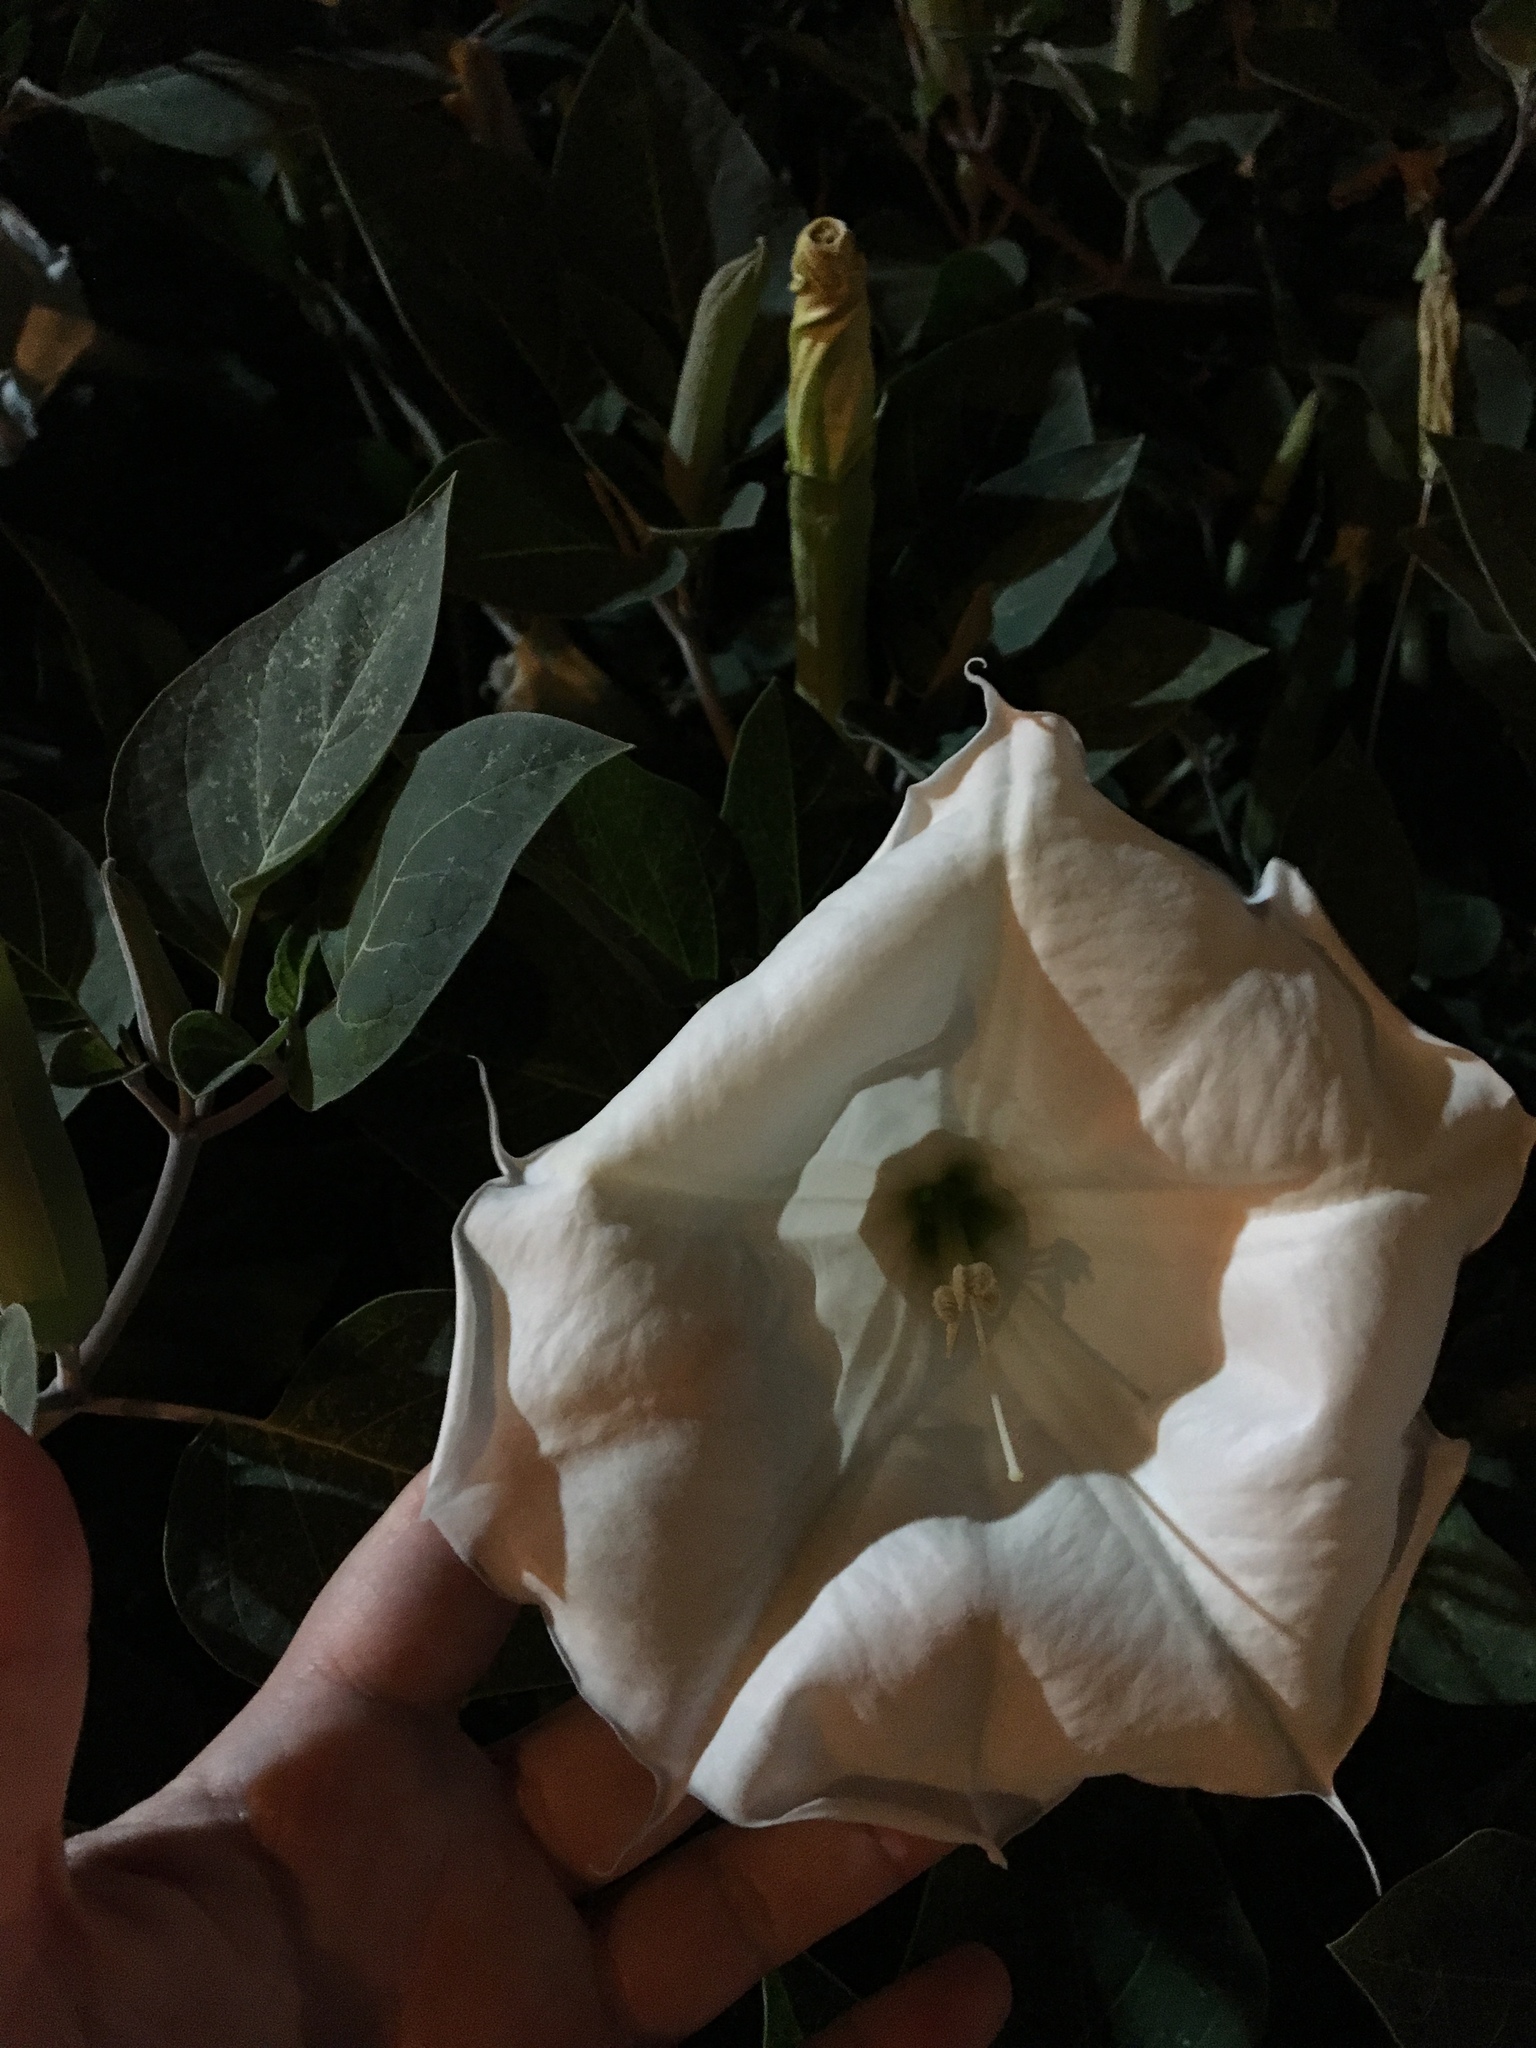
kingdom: Plantae
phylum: Tracheophyta
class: Magnoliopsida
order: Solanales
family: Solanaceae
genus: Datura
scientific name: Datura wrightii
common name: Sacred thorn-apple
